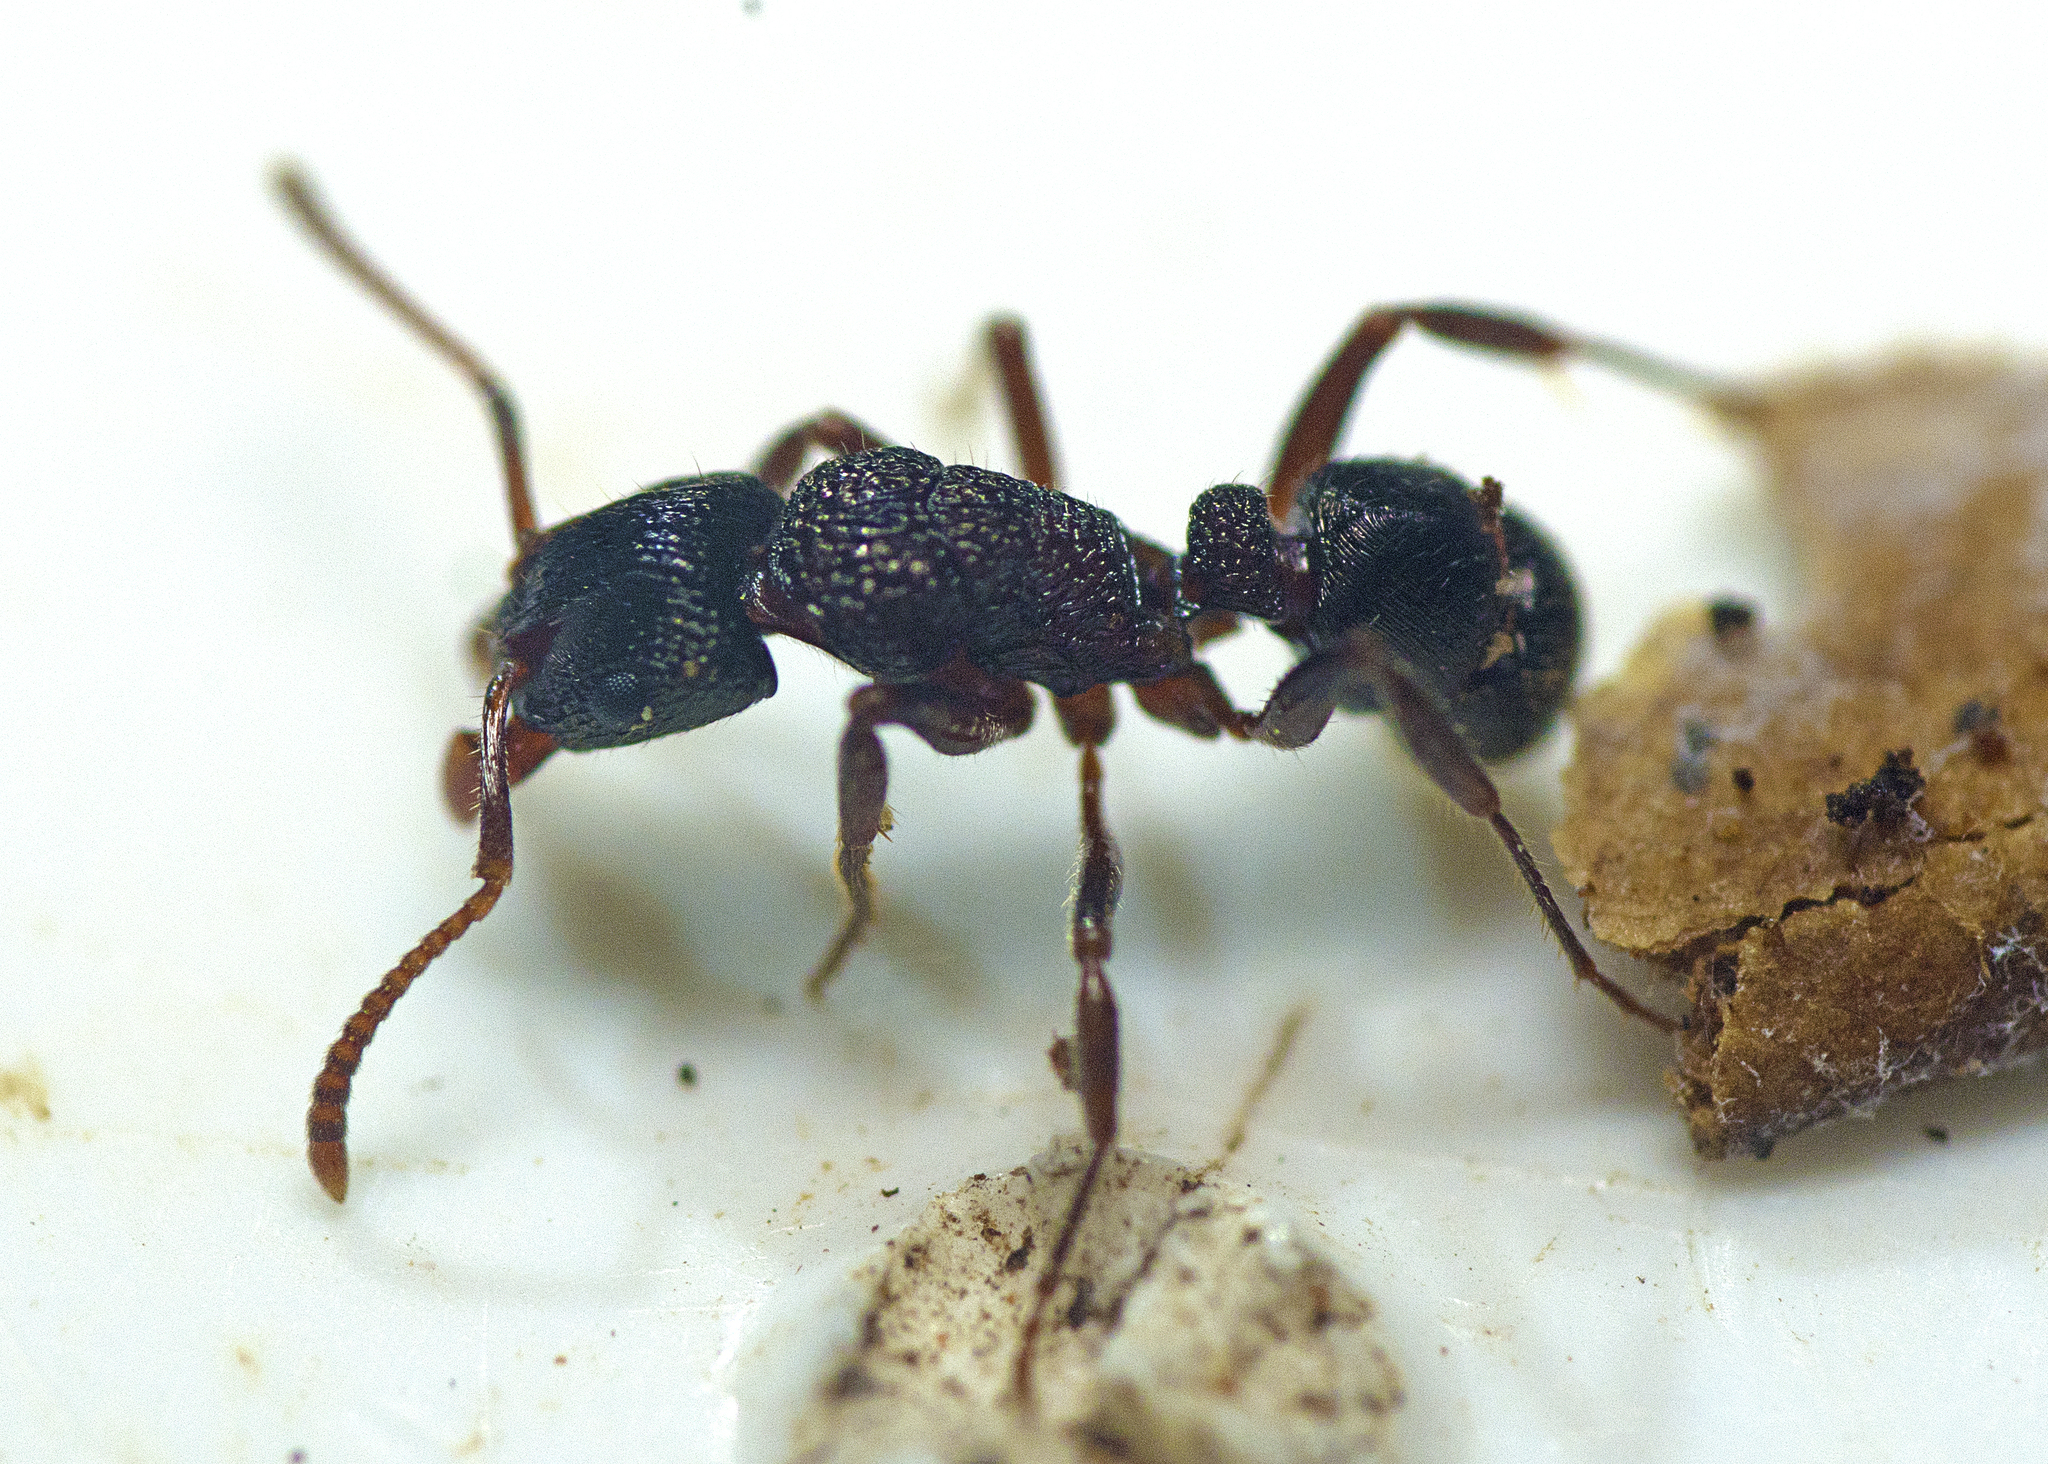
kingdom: Animalia
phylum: Arthropoda
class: Insecta
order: Hymenoptera
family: Formicidae
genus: Rhytidoponera
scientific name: Rhytidoponera victoriae
